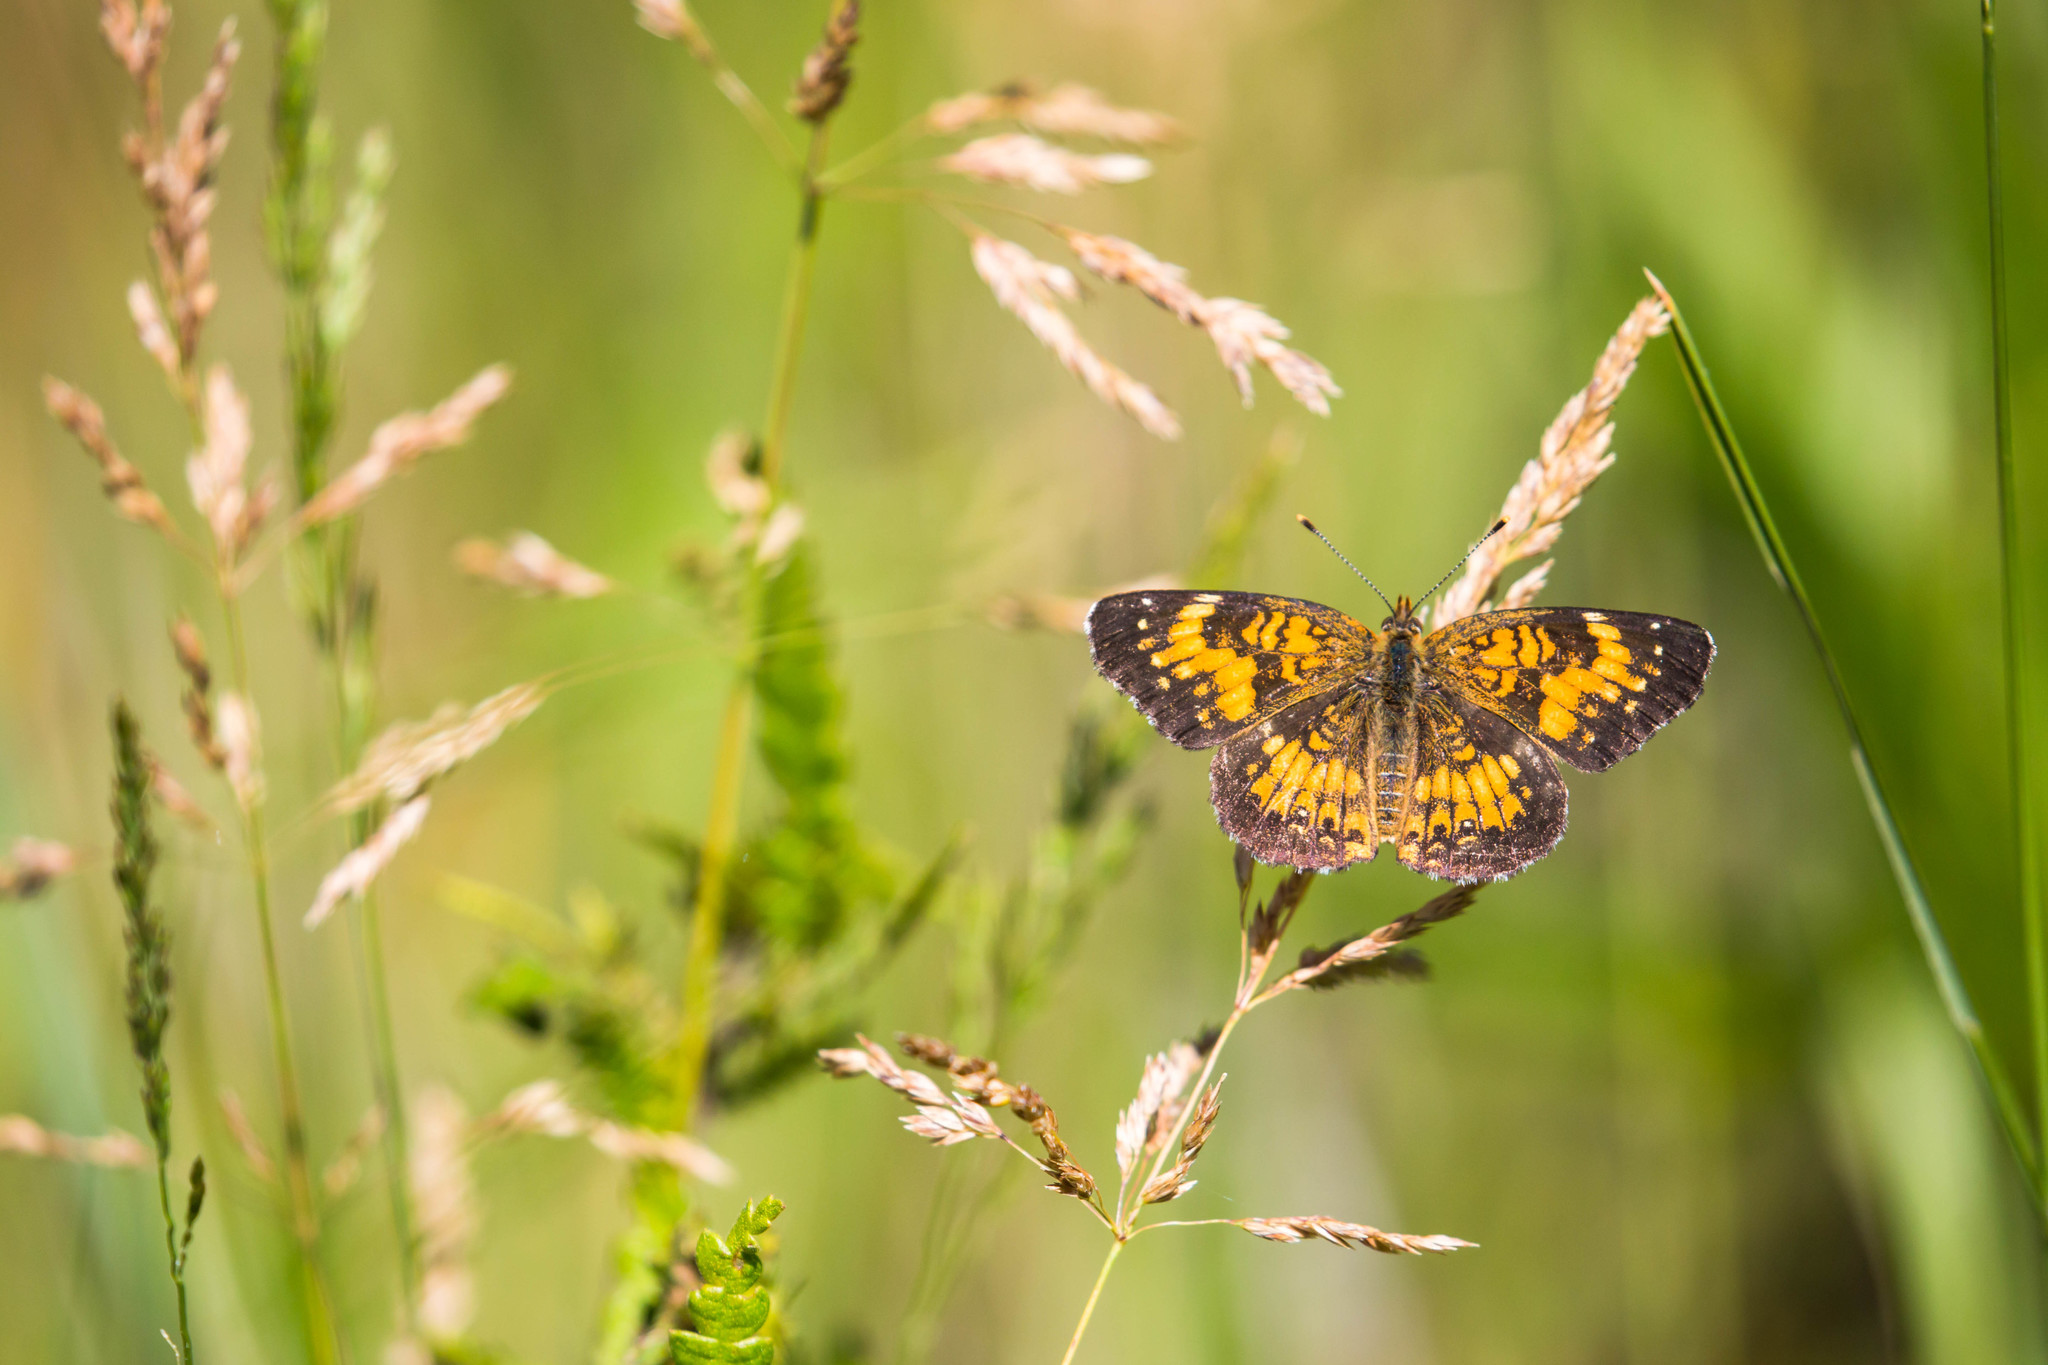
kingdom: Animalia
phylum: Arthropoda
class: Insecta
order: Lepidoptera
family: Nymphalidae
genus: Chlosyne
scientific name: Chlosyne harrisii
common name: Harris's checkerspot
